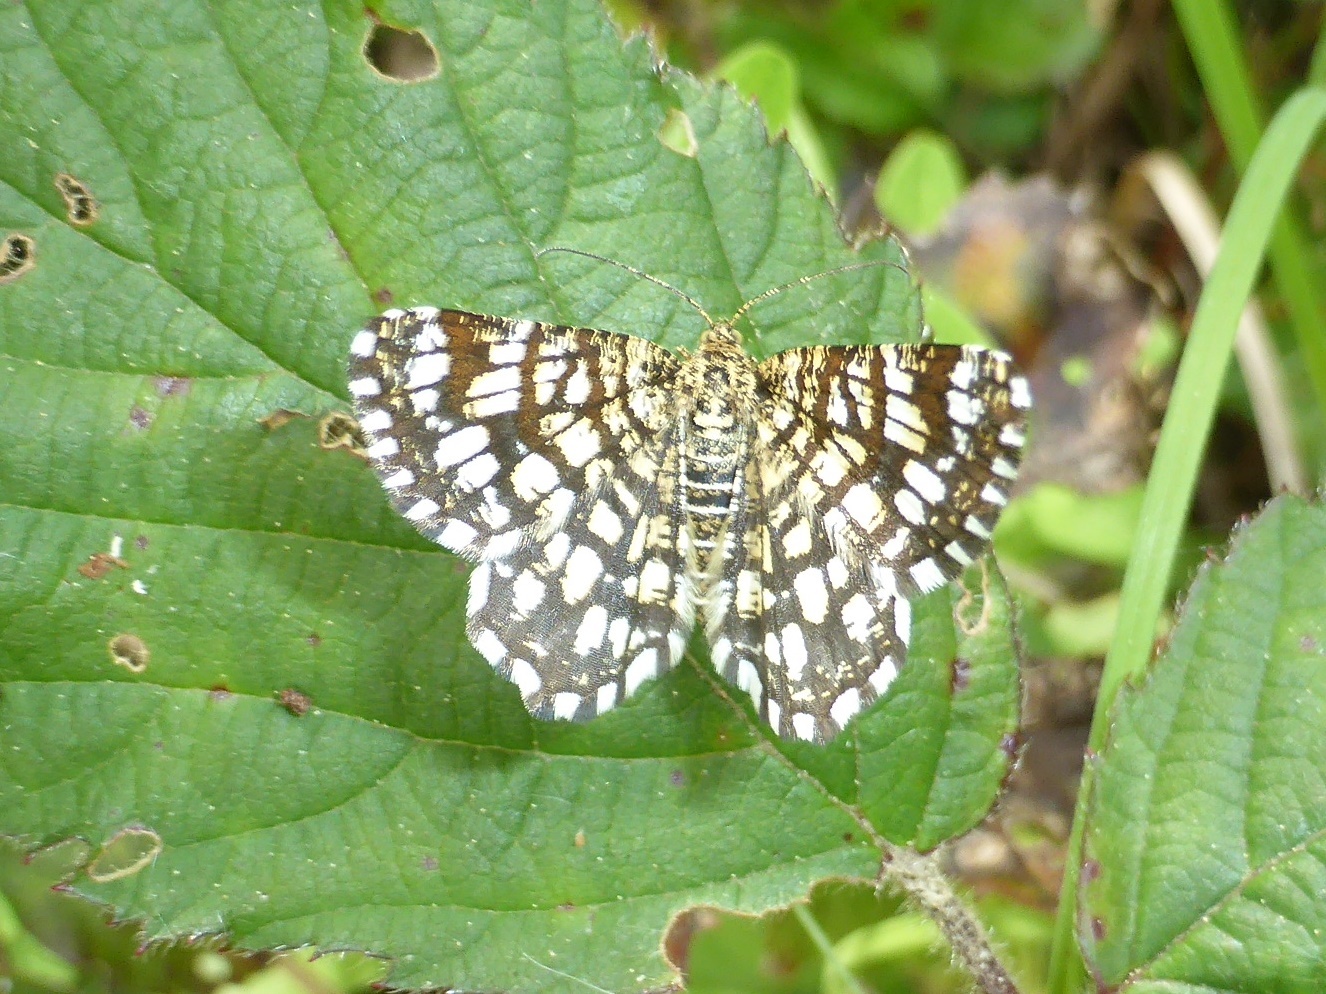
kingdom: Animalia
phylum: Arthropoda
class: Insecta
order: Lepidoptera
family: Geometridae
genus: Chiasmia
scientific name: Chiasmia clathrata
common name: Latticed heath
